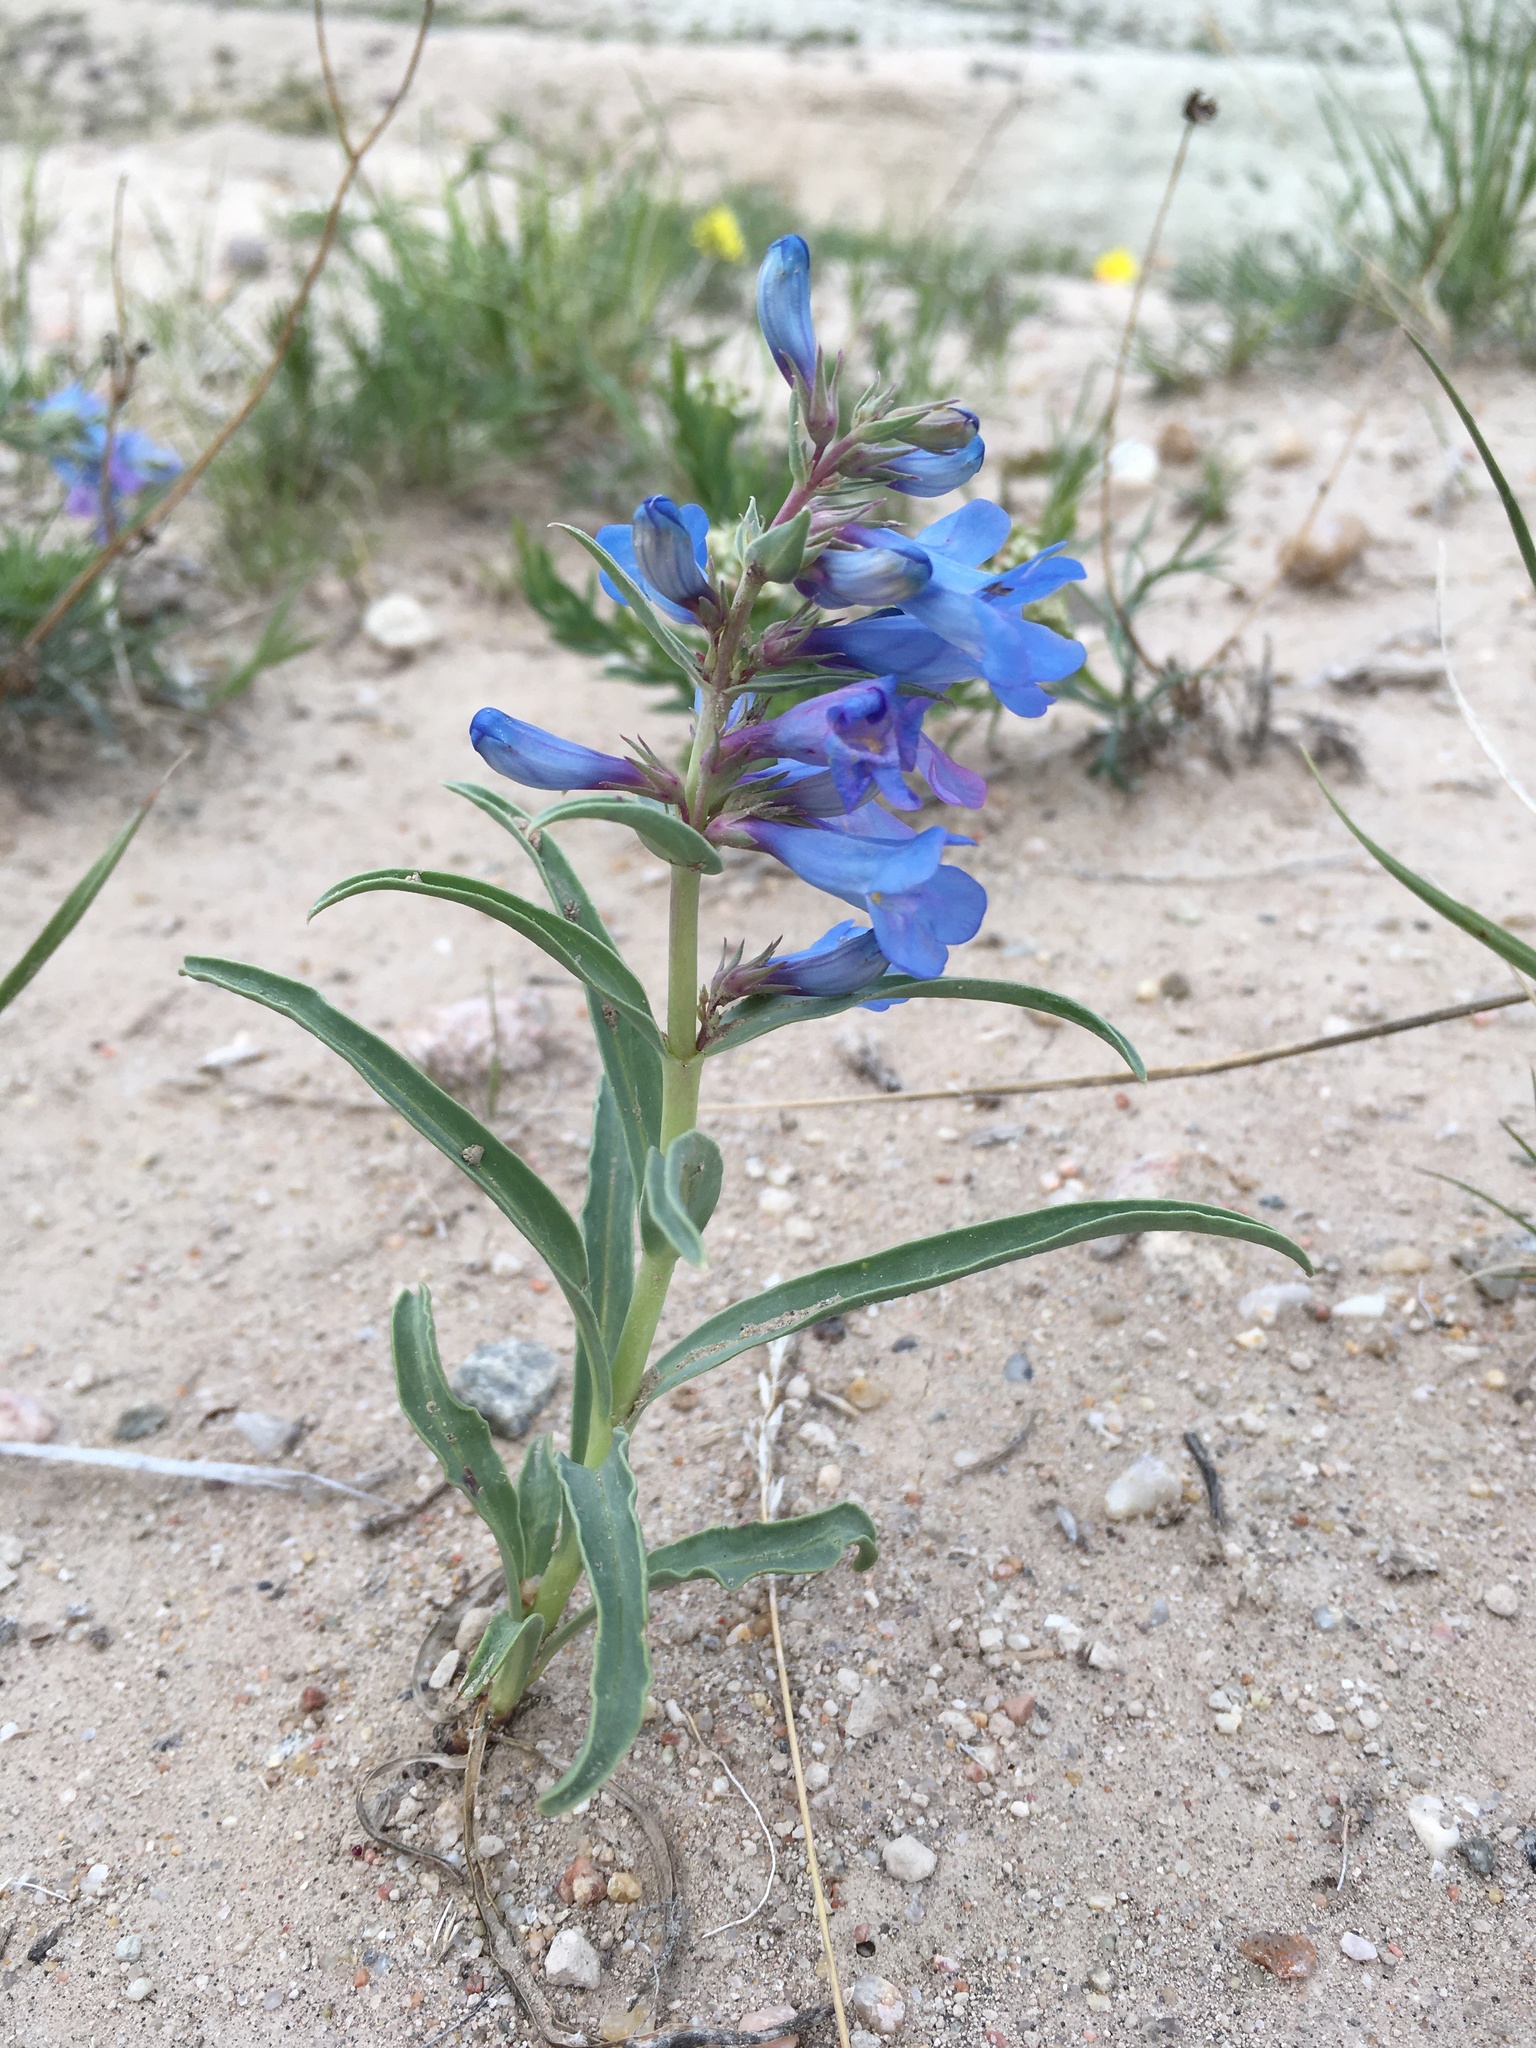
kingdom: Plantae
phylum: Tracheophyta
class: Magnoliopsida
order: Lamiales
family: Plantaginaceae
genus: Penstemon
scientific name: Penstemon angustifolius
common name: Narrow beardtongue
